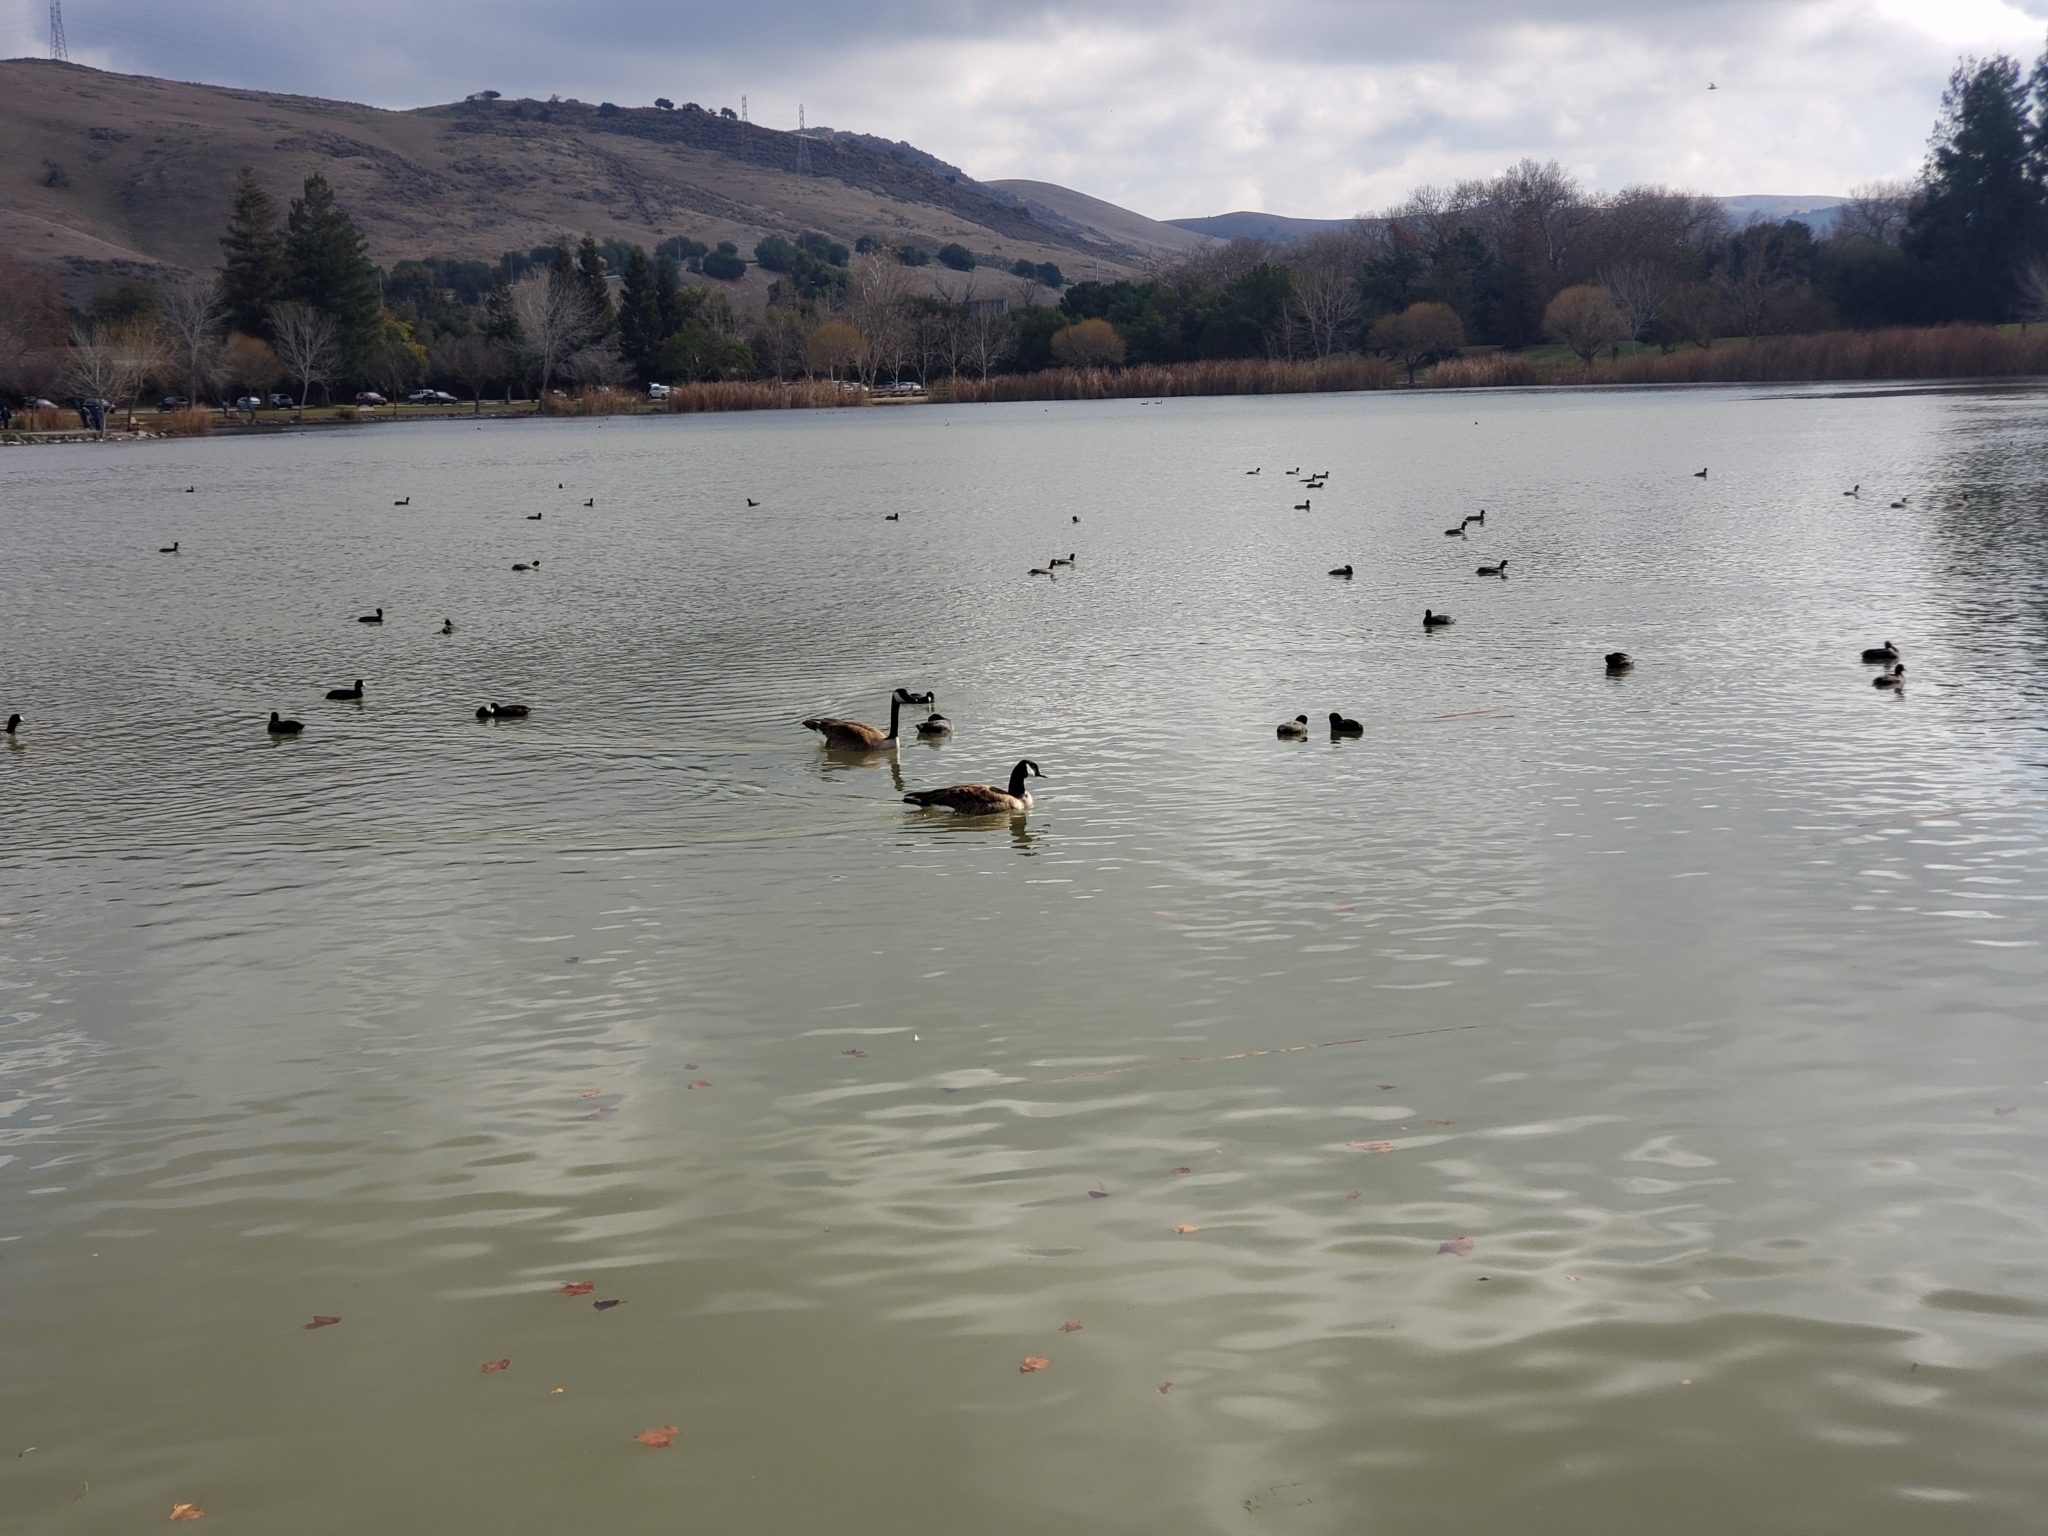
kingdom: Animalia
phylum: Chordata
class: Aves
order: Anseriformes
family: Anatidae
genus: Branta
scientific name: Branta canadensis
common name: Canada goose
